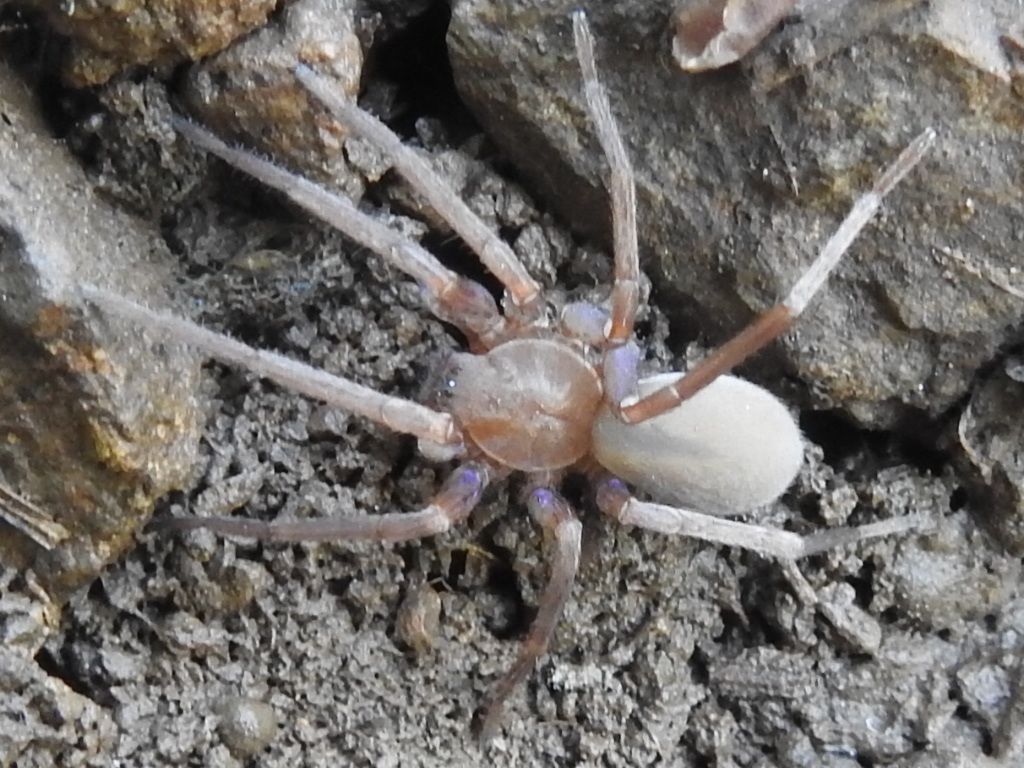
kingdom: Animalia
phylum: Arthropoda
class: Arachnida
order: Araneae
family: Zoropsidae
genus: Titiotus
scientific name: Titiotus
